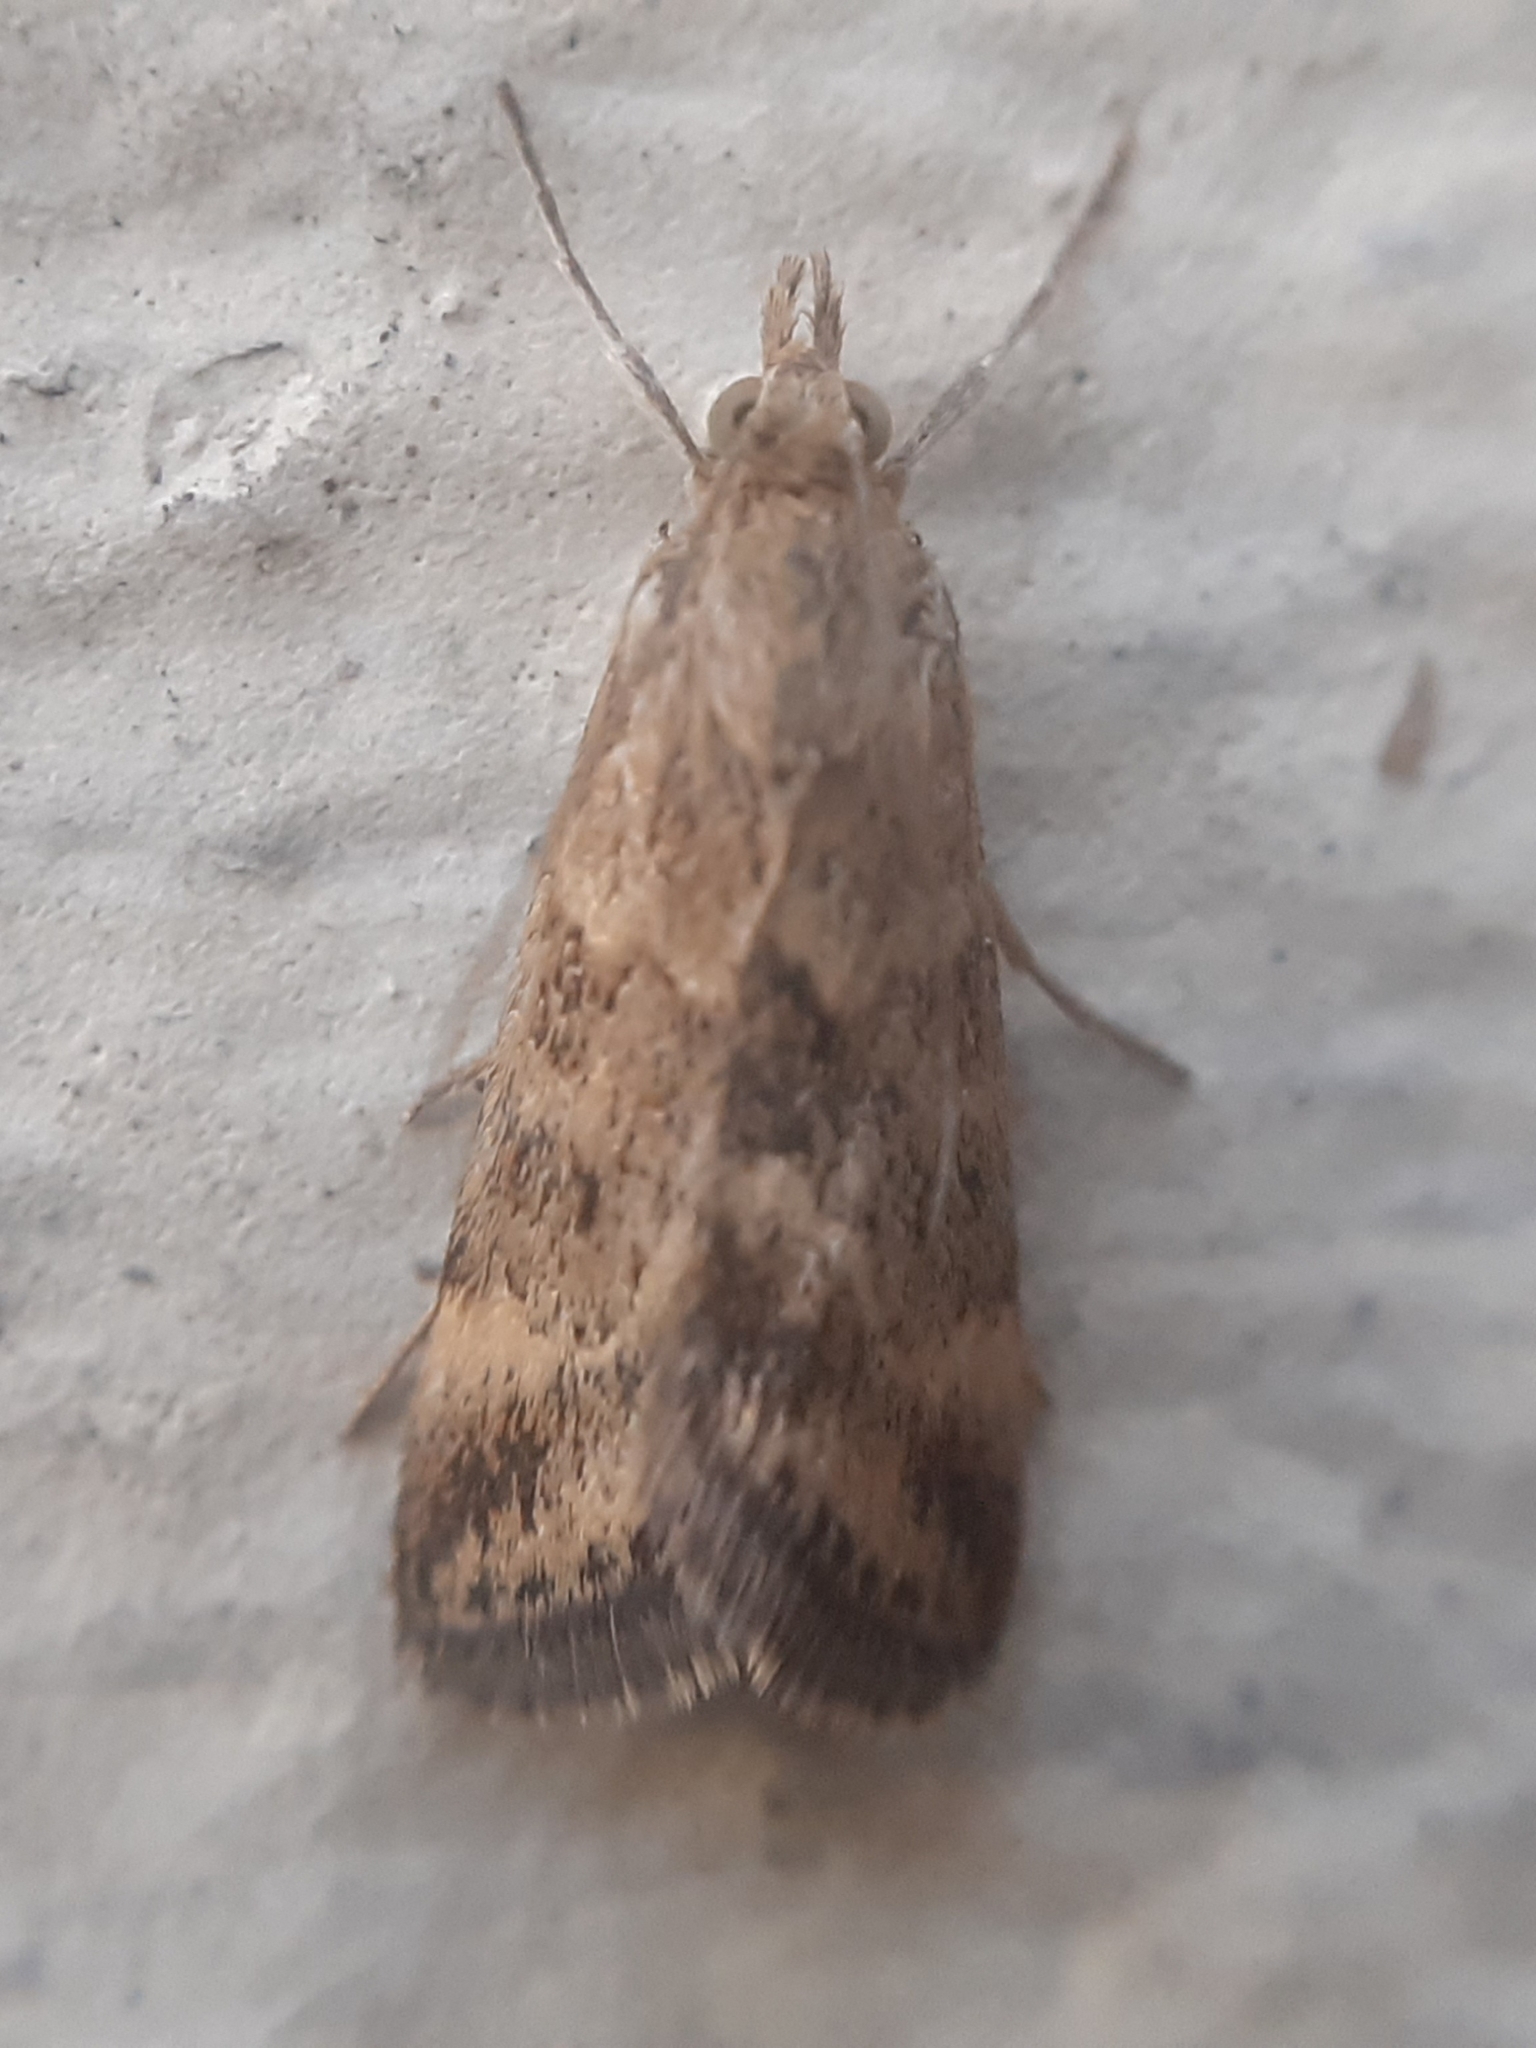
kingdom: Animalia
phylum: Arthropoda
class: Insecta
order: Lepidoptera
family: Crambidae
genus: Pyrausta
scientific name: Pyrausta despicata
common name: Straw-barred pearl
